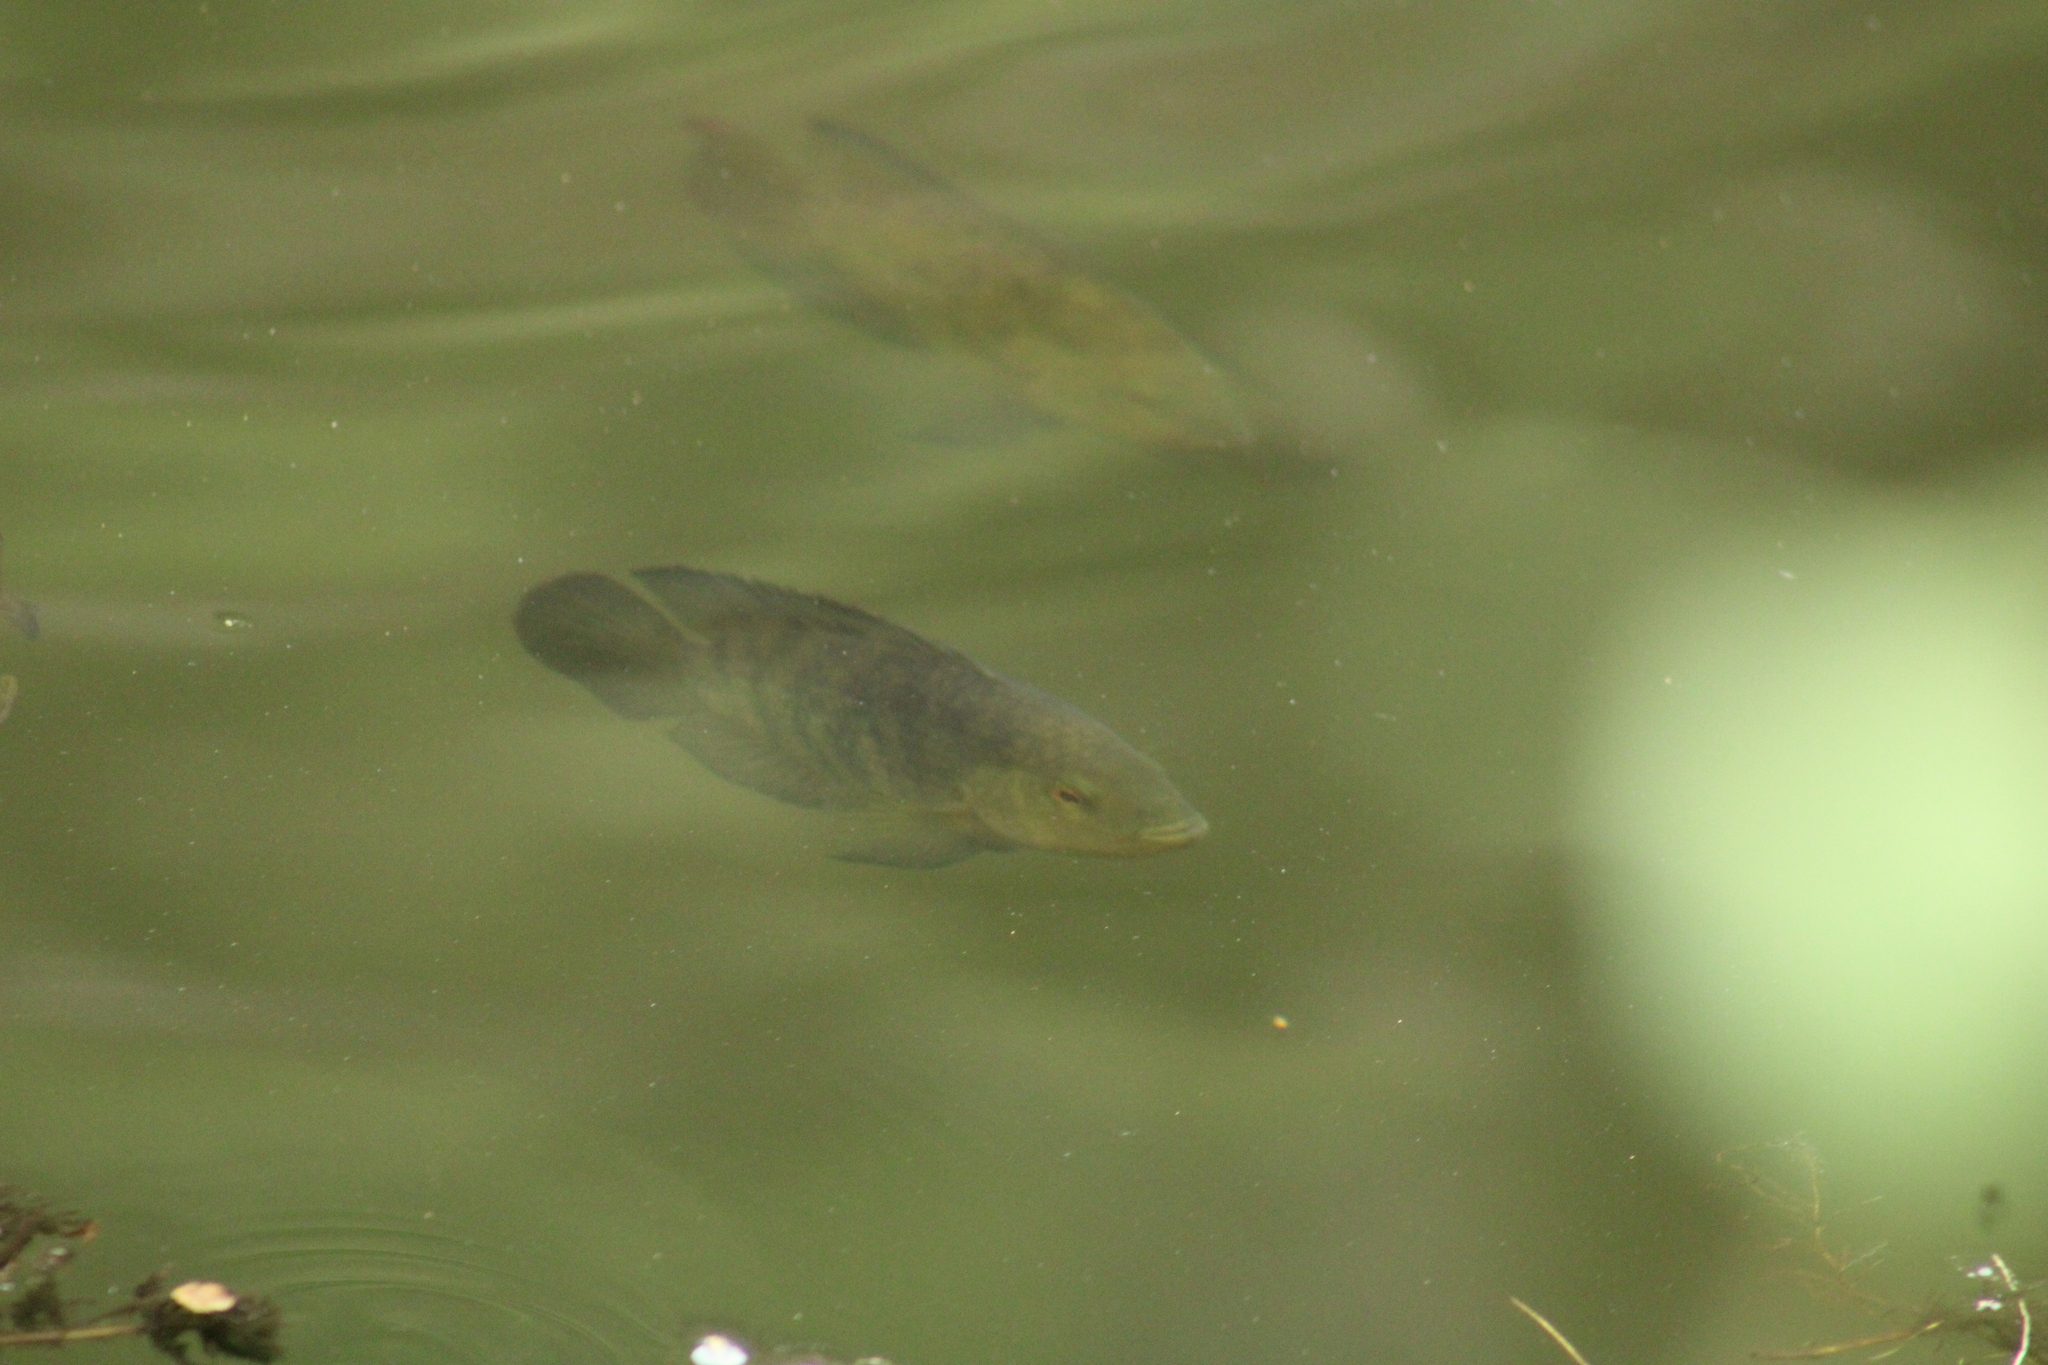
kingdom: Animalia
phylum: Chordata
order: Perciformes
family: Cichlidae
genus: Australoheros
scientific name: Australoheros facetus
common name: Chameleon cichlid
